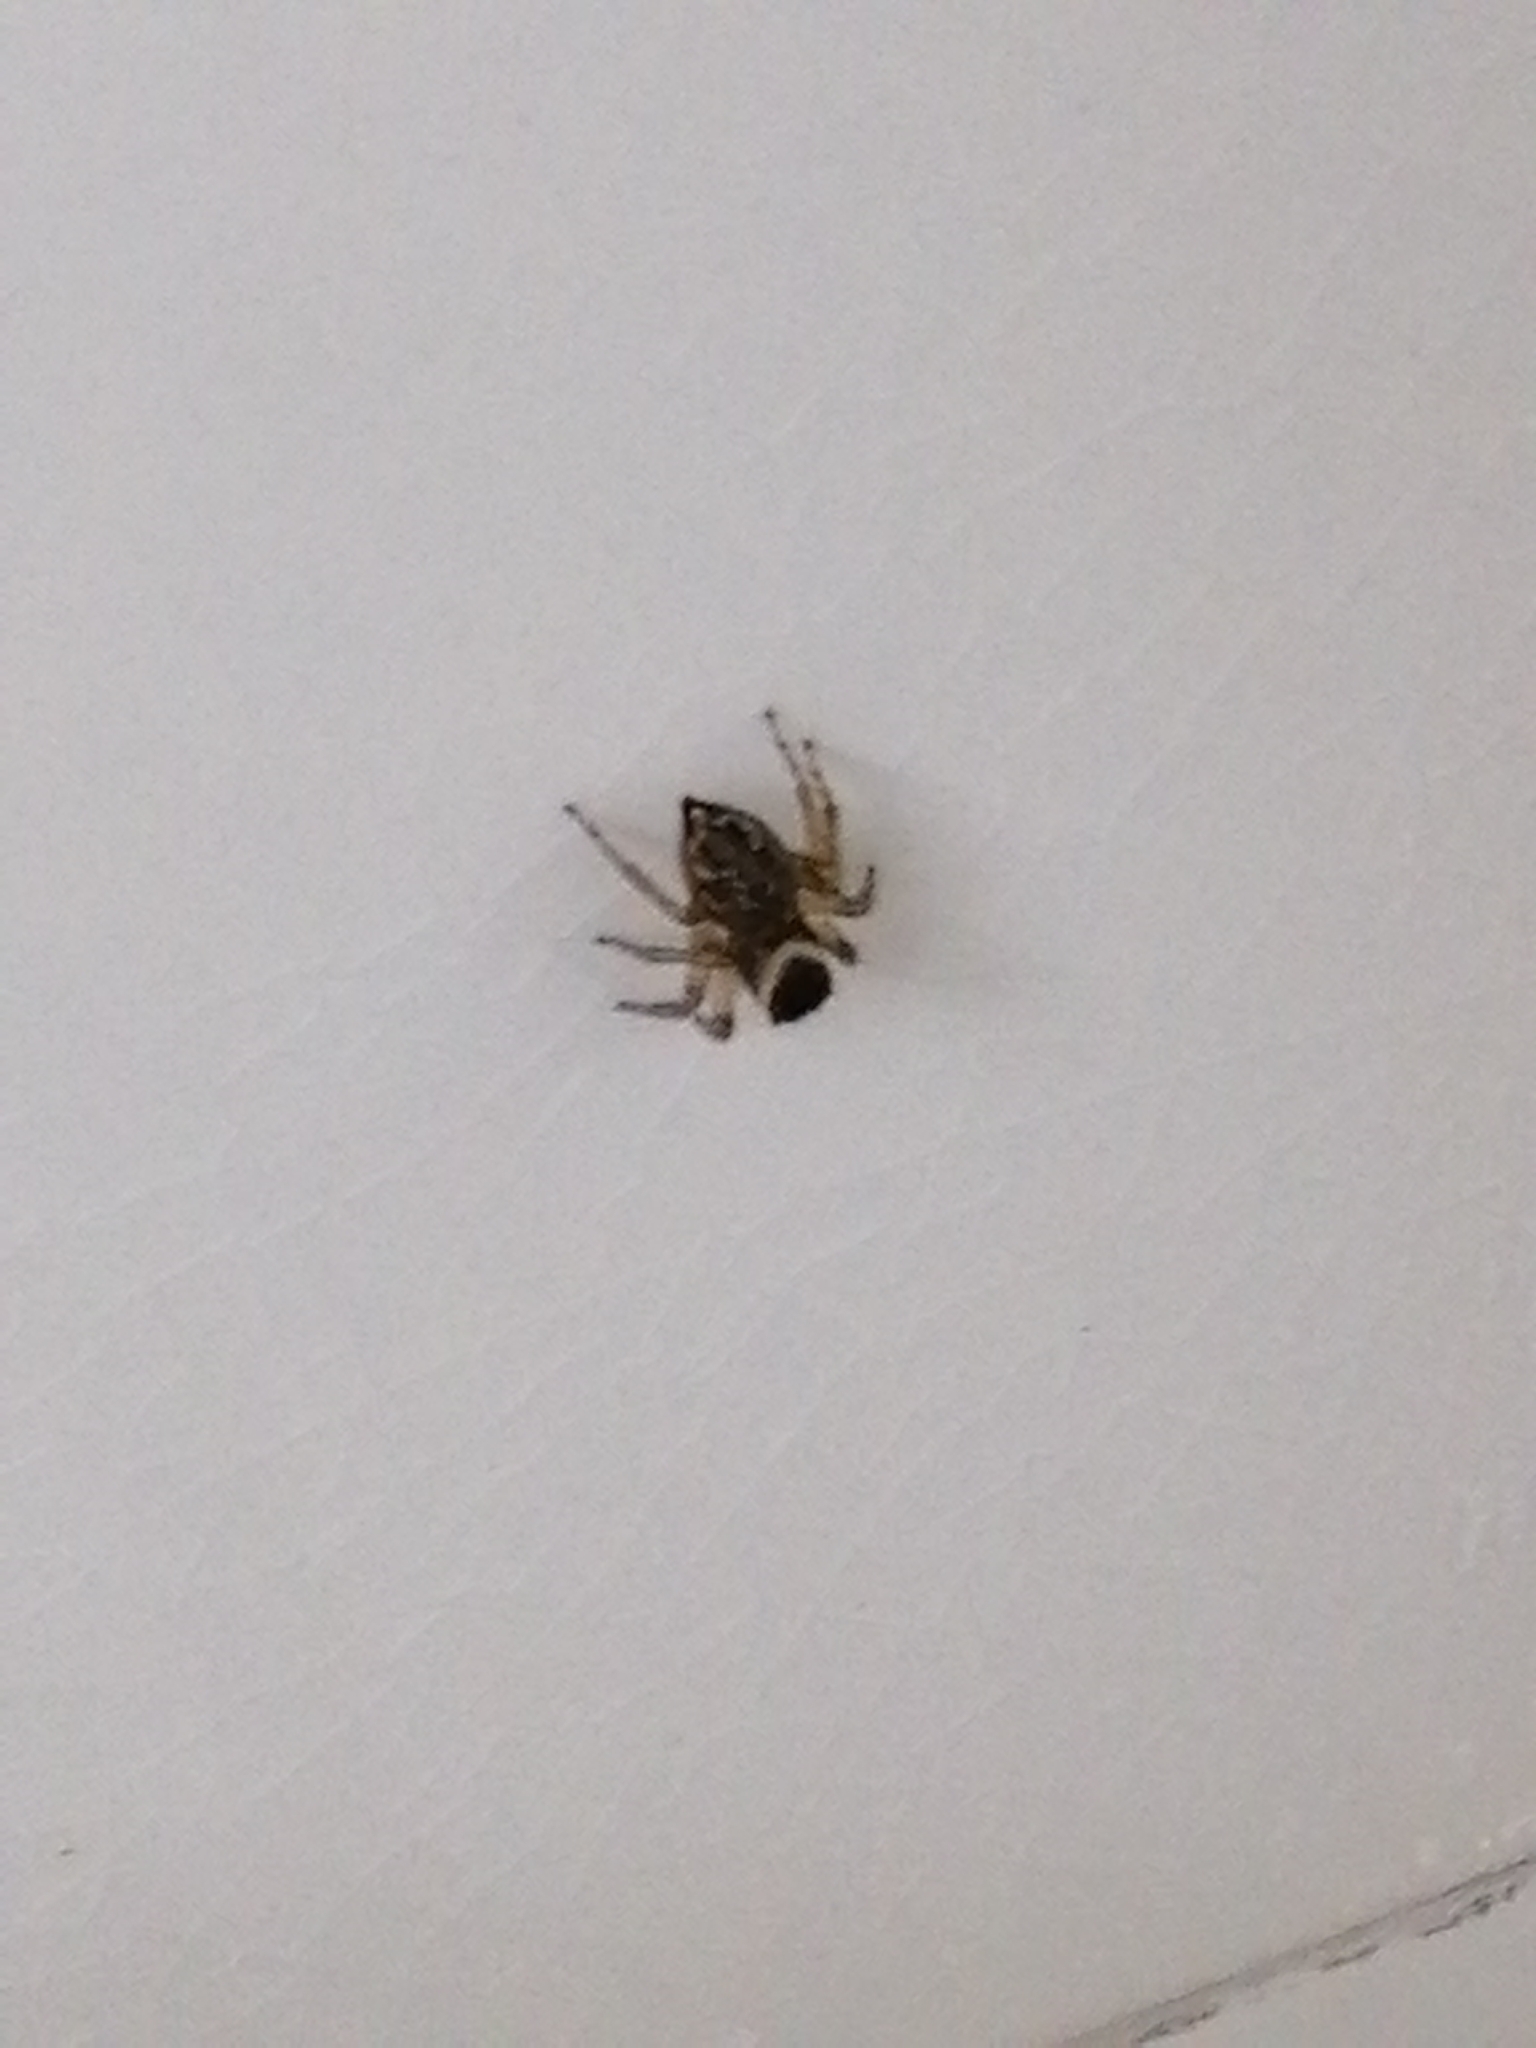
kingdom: Animalia
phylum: Arthropoda
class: Arachnida
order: Araneae
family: Salticidae
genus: Maratus
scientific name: Maratus griseus
